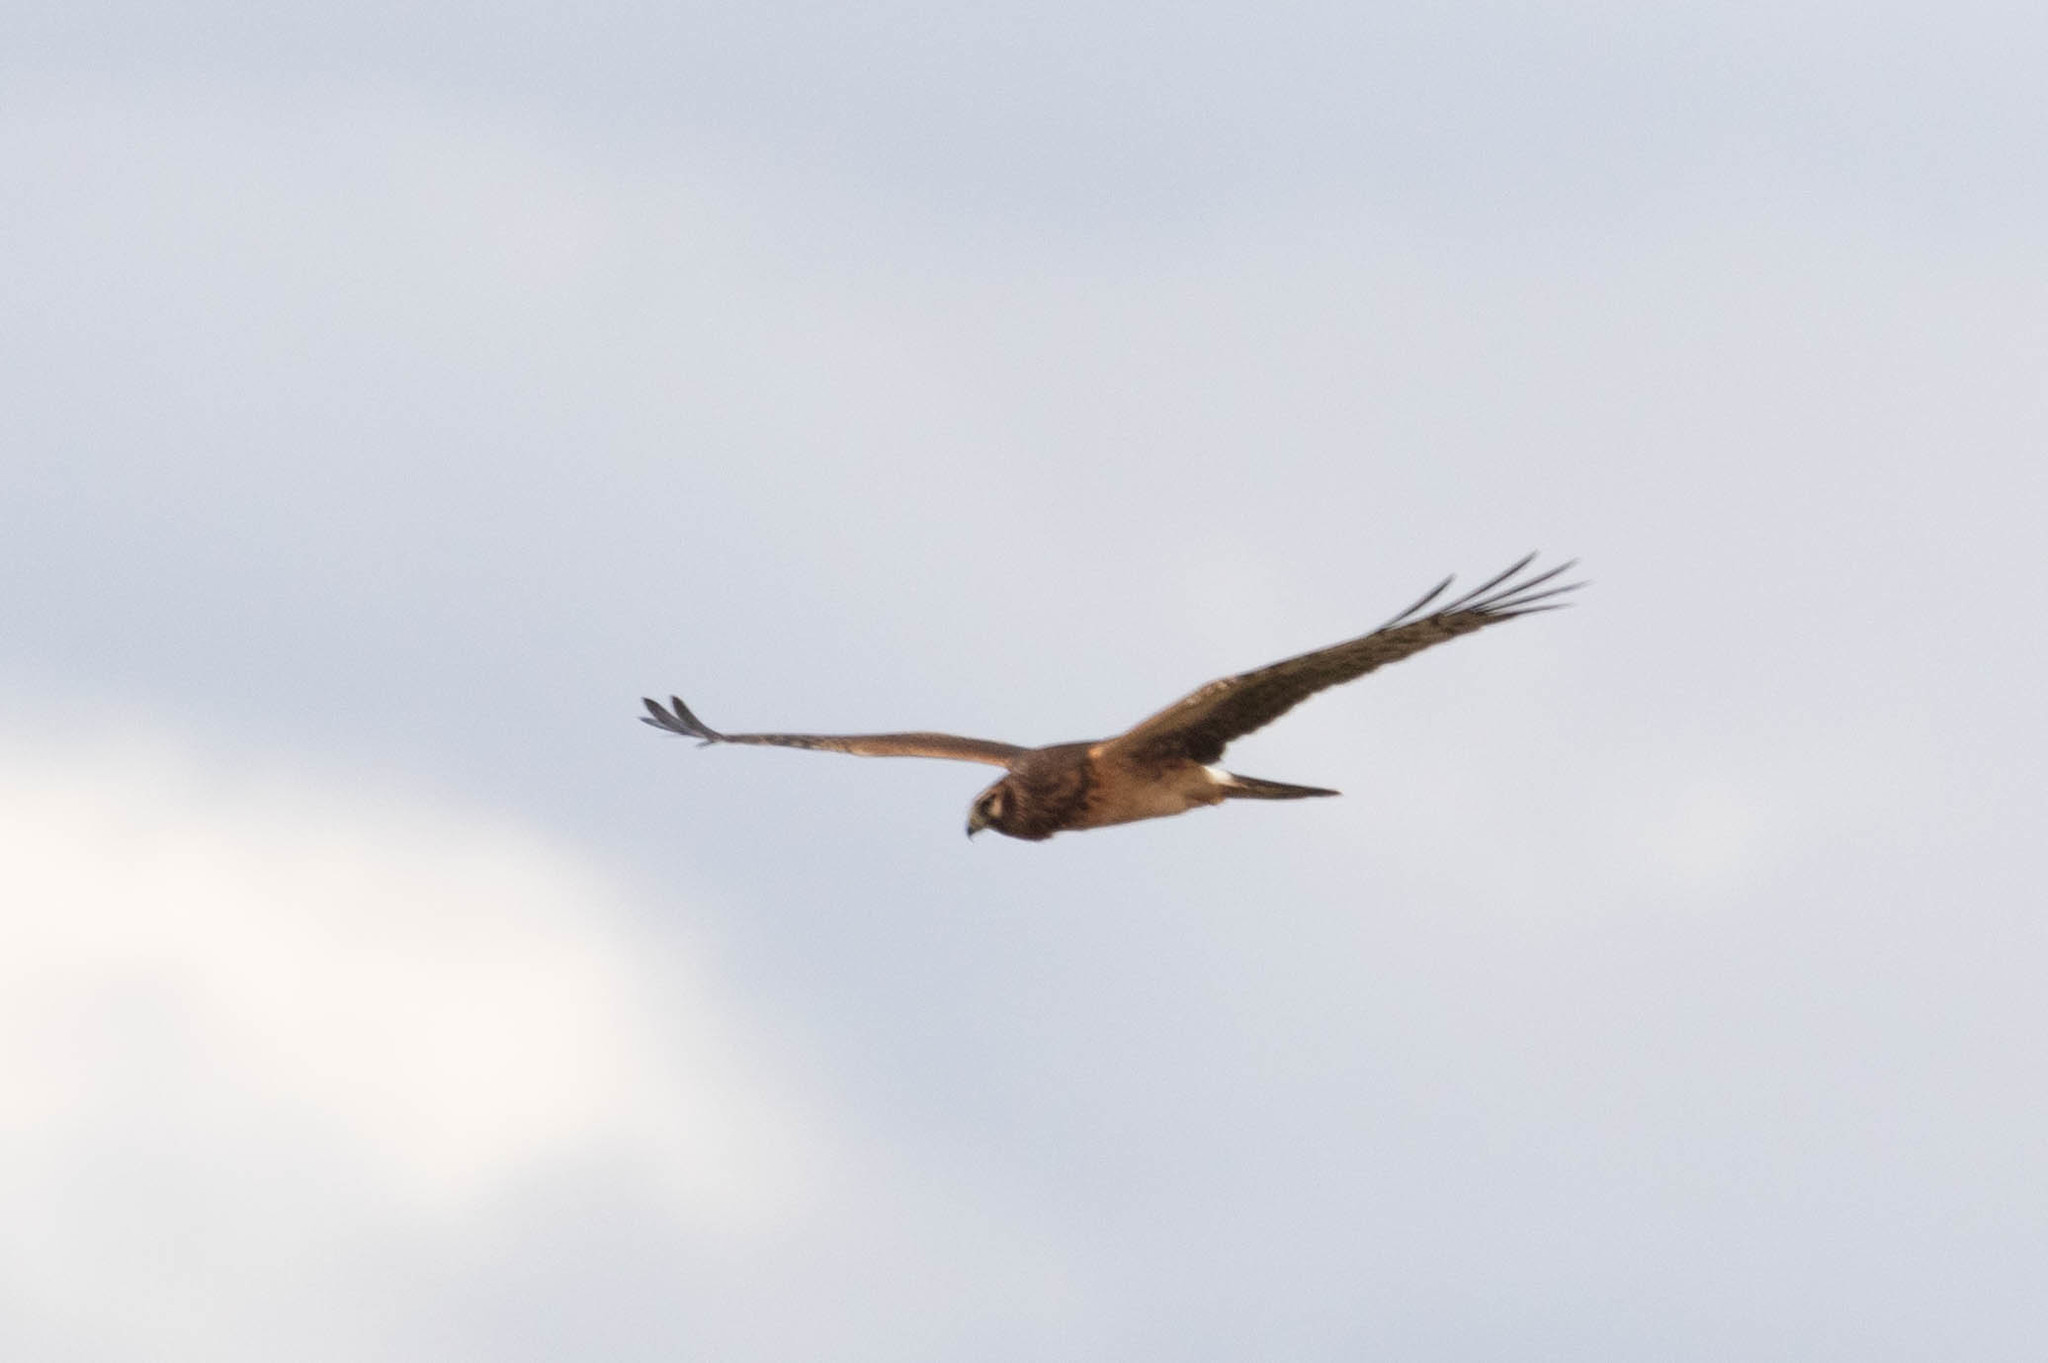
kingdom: Animalia
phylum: Chordata
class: Aves
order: Accipitriformes
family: Accipitridae
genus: Circus
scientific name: Circus cyaneus
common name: Hen harrier
